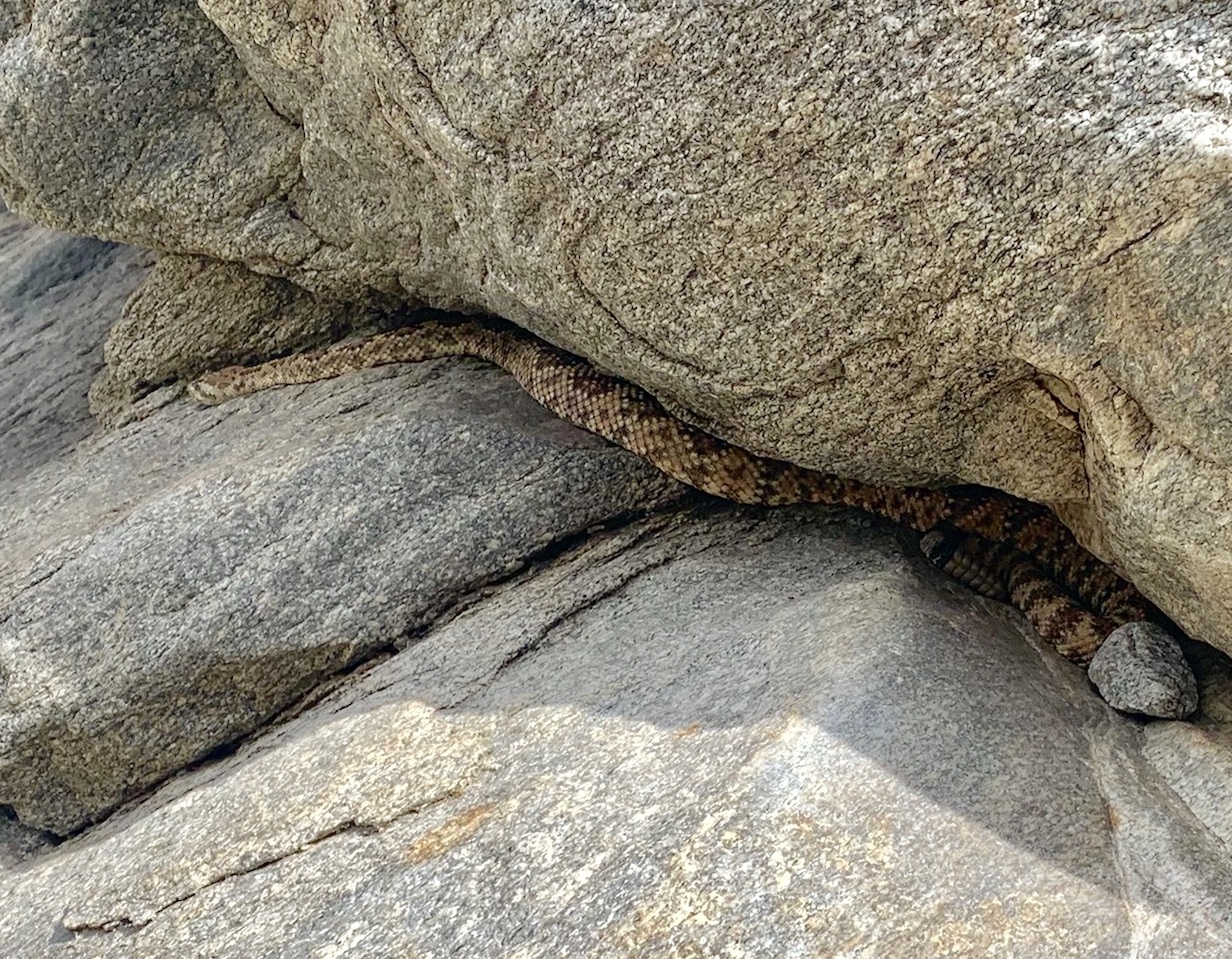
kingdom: Animalia
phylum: Chordata
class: Squamata
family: Viperidae
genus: Crotalus
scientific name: Crotalus pyrrhus
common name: Southwestern speckled rattlesnake
